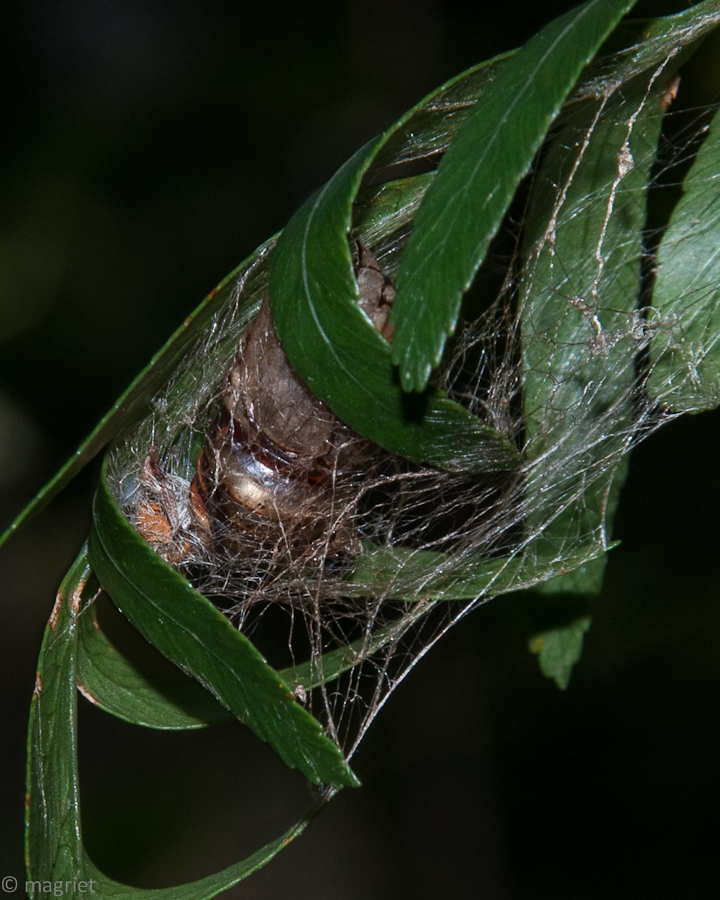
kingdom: Animalia
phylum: Arthropoda
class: Insecta
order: Lepidoptera
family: Noctuidae
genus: Nyodes
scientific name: Nyodes lutescens
